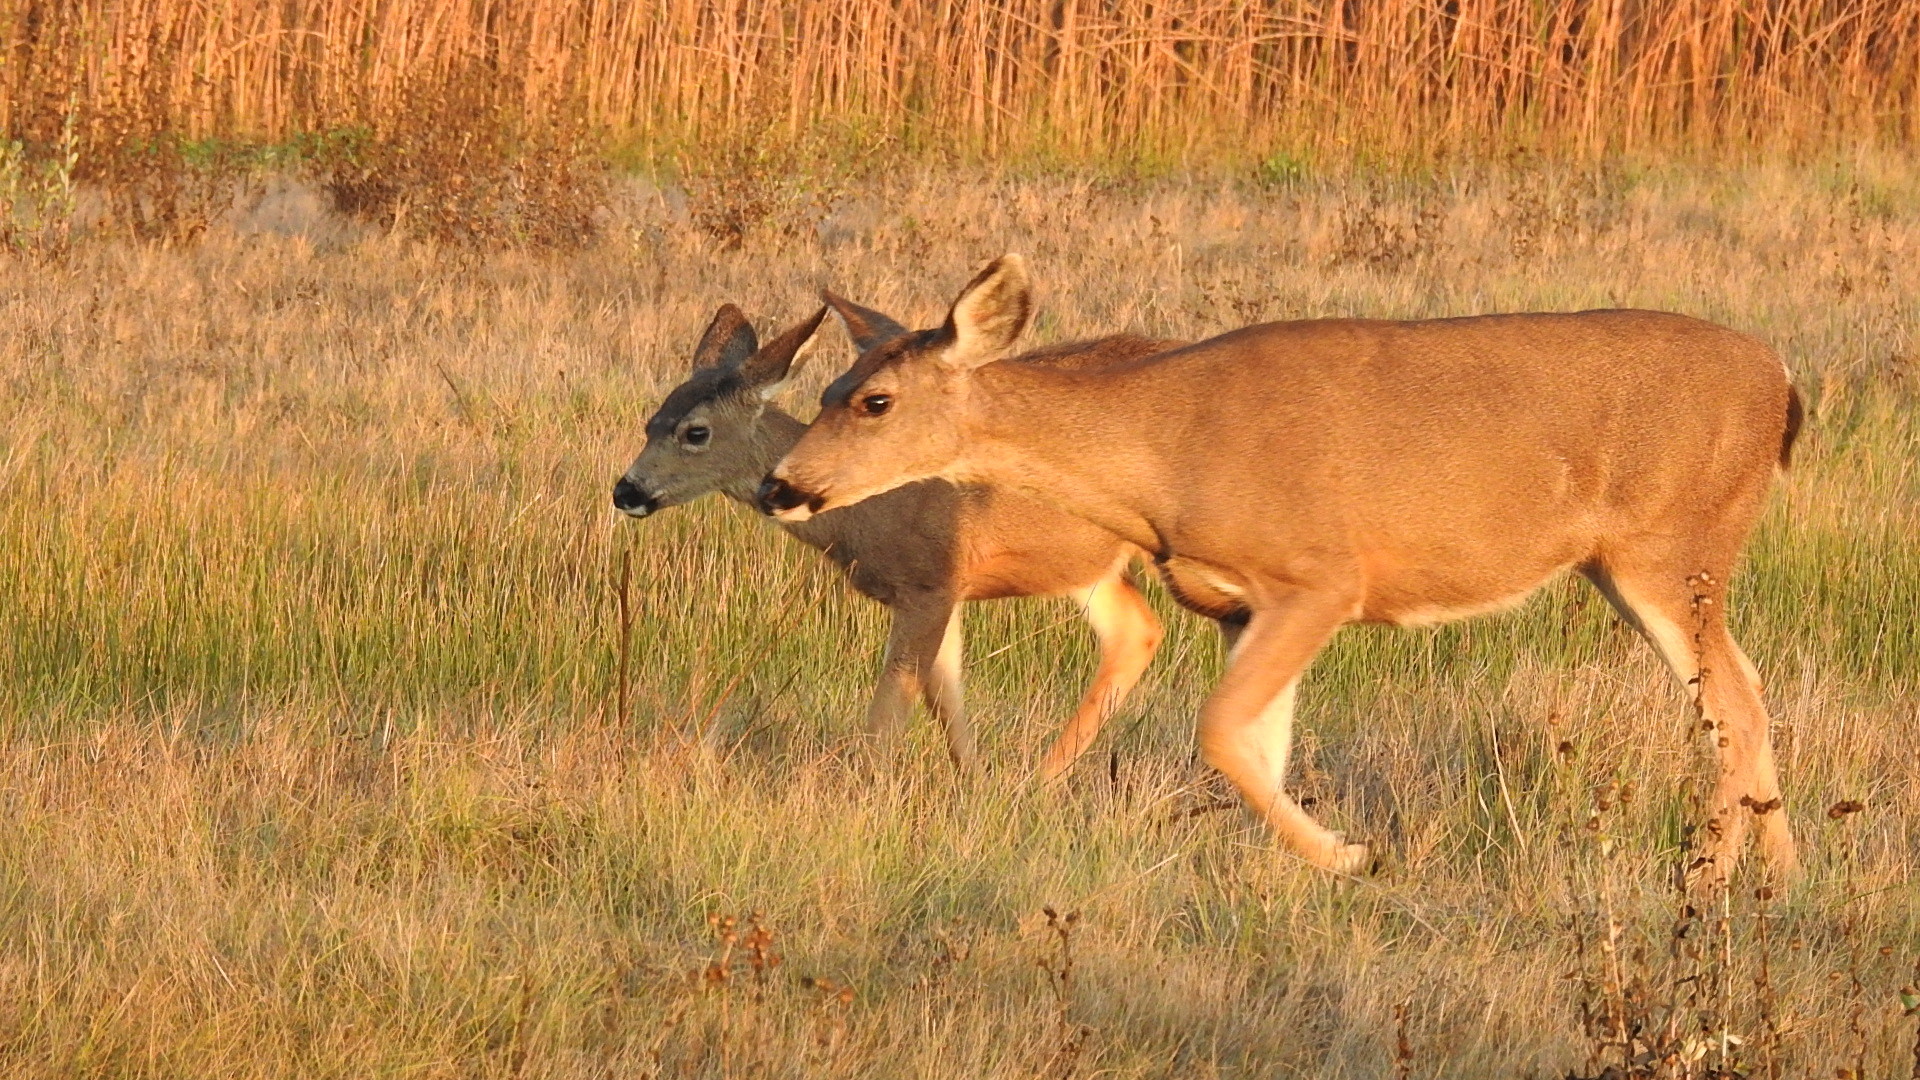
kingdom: Animalia
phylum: Chordata
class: Mammalia
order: Artiodactyla
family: Cervidae
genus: Odocoileus
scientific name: Odocoileus hemionus
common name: Mule deer
